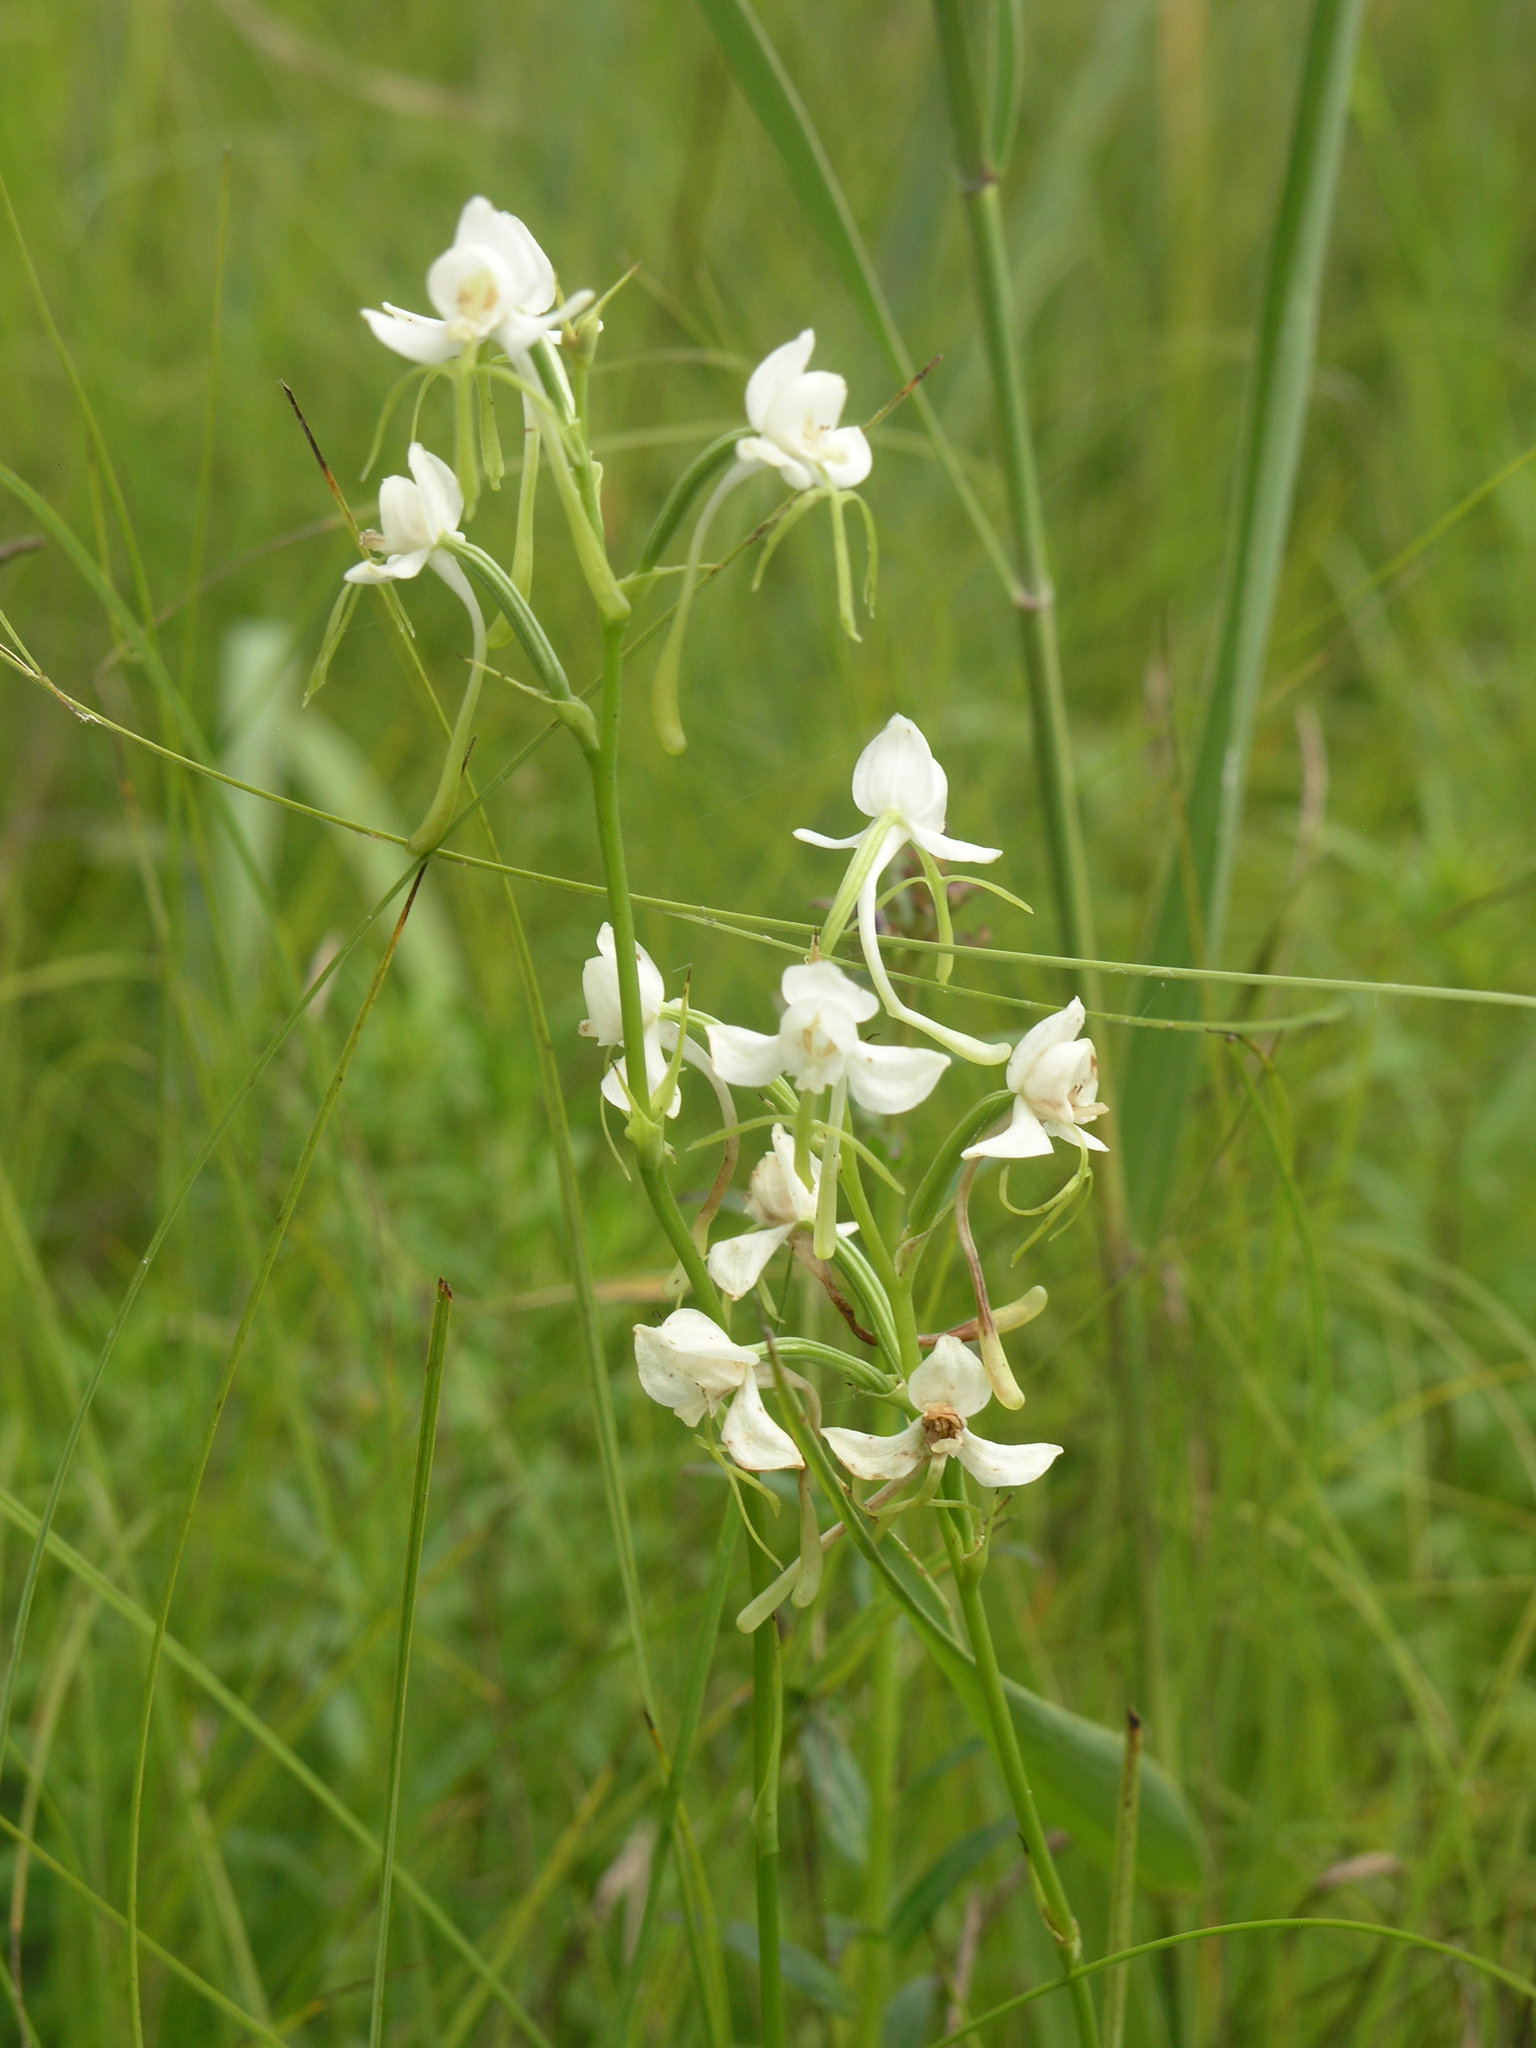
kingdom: Plantae
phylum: Tracheophyta
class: Liliopsida
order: Asparagales
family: Orchidaceae
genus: Habenaria
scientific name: Habenaria linearifolia
